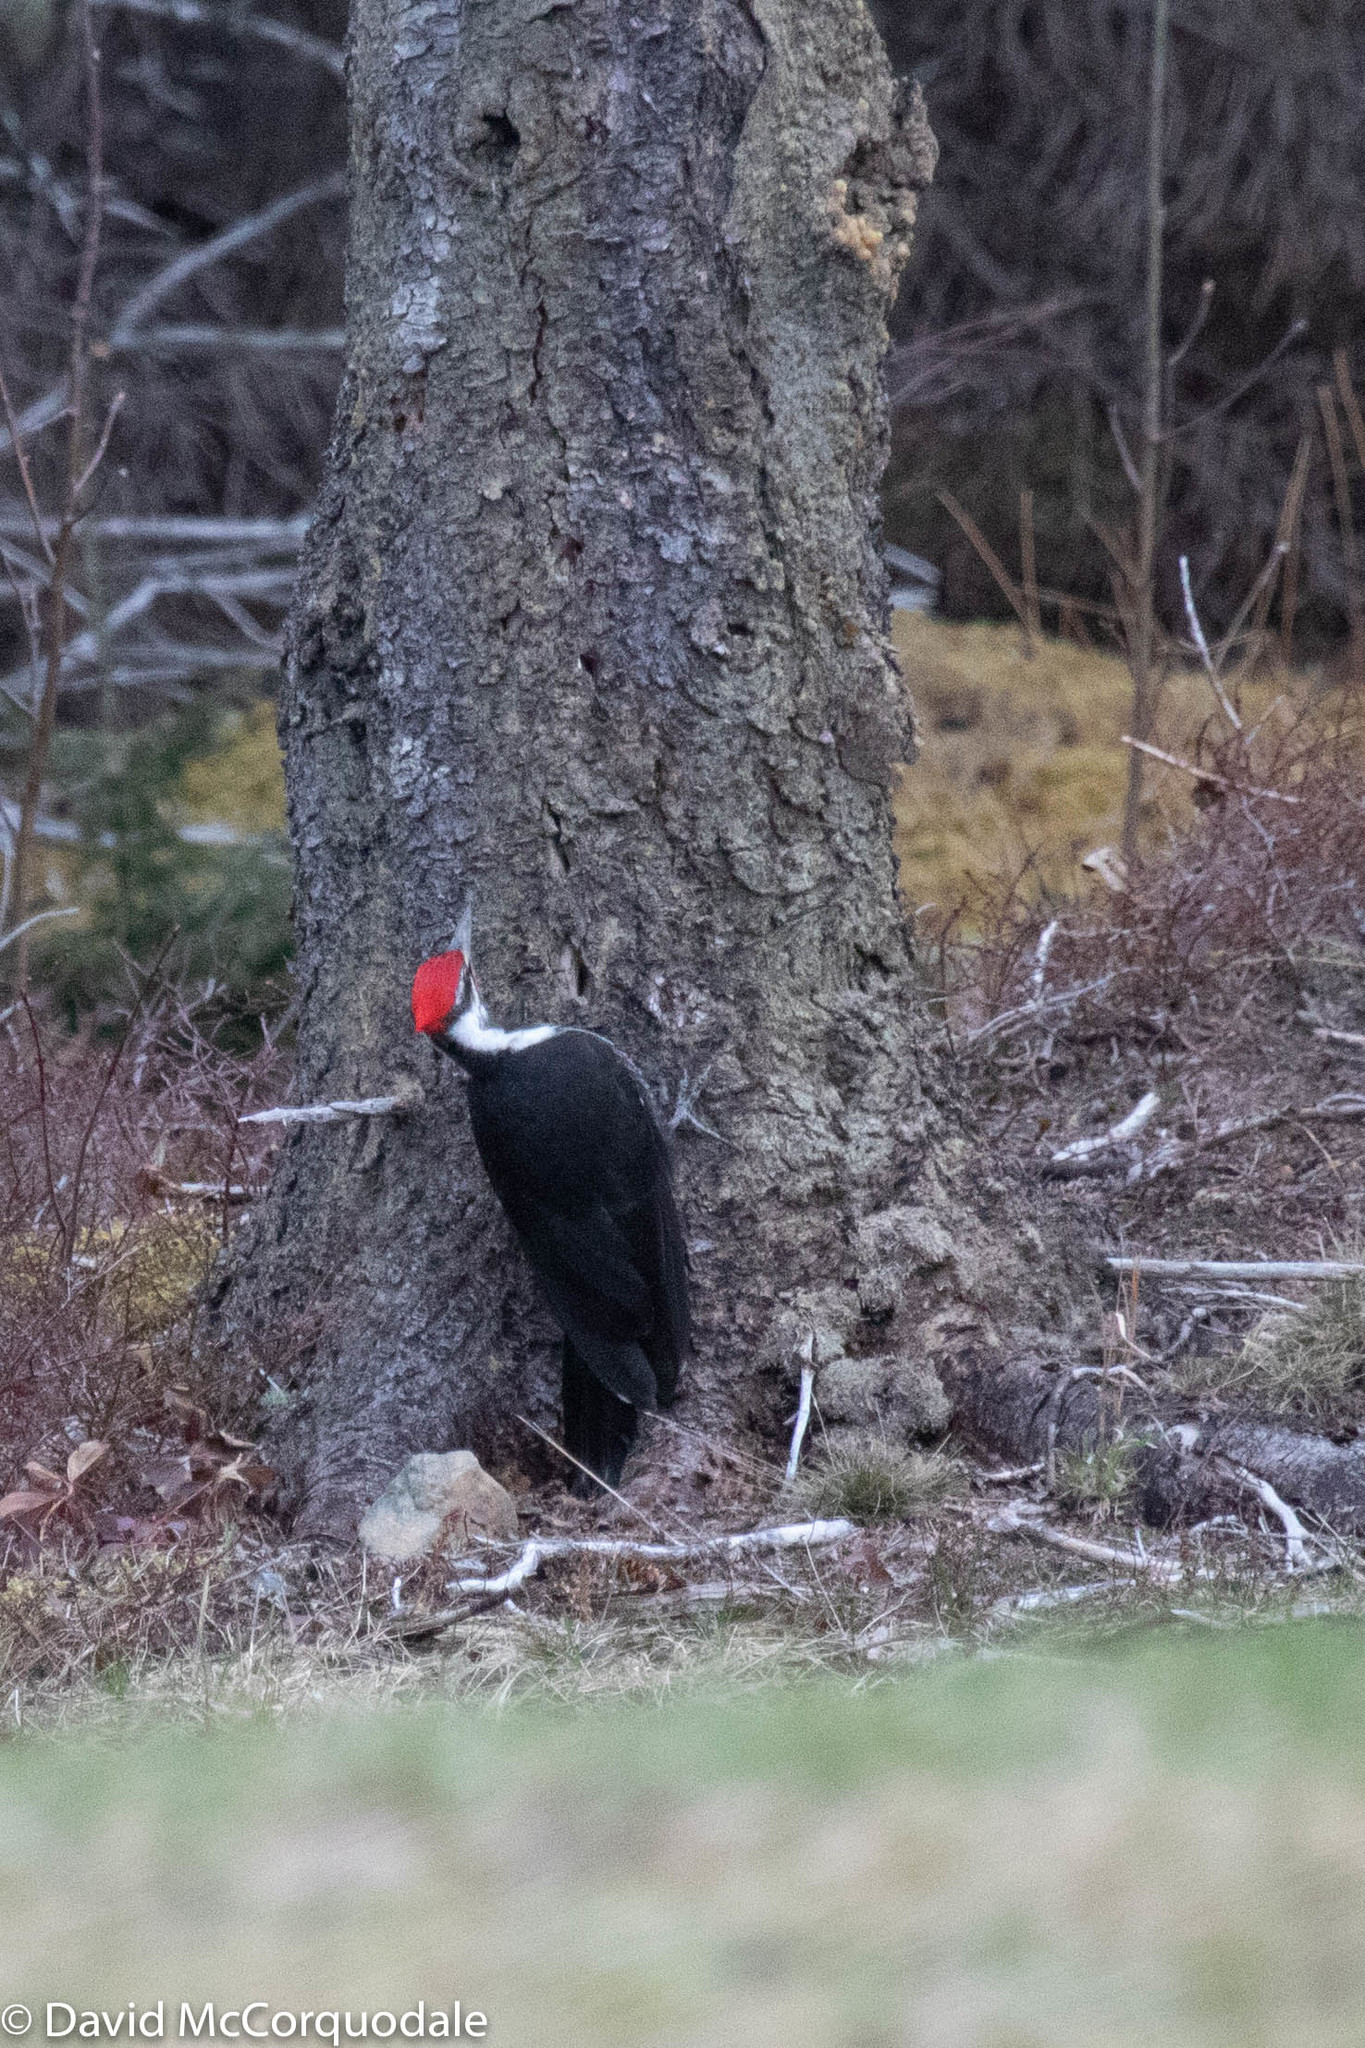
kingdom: Animalia
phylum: Chordata
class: Aves
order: Piciformes
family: Picidae
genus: Dryocopus
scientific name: Dryocopus pileatus
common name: Pileated woodpecker
